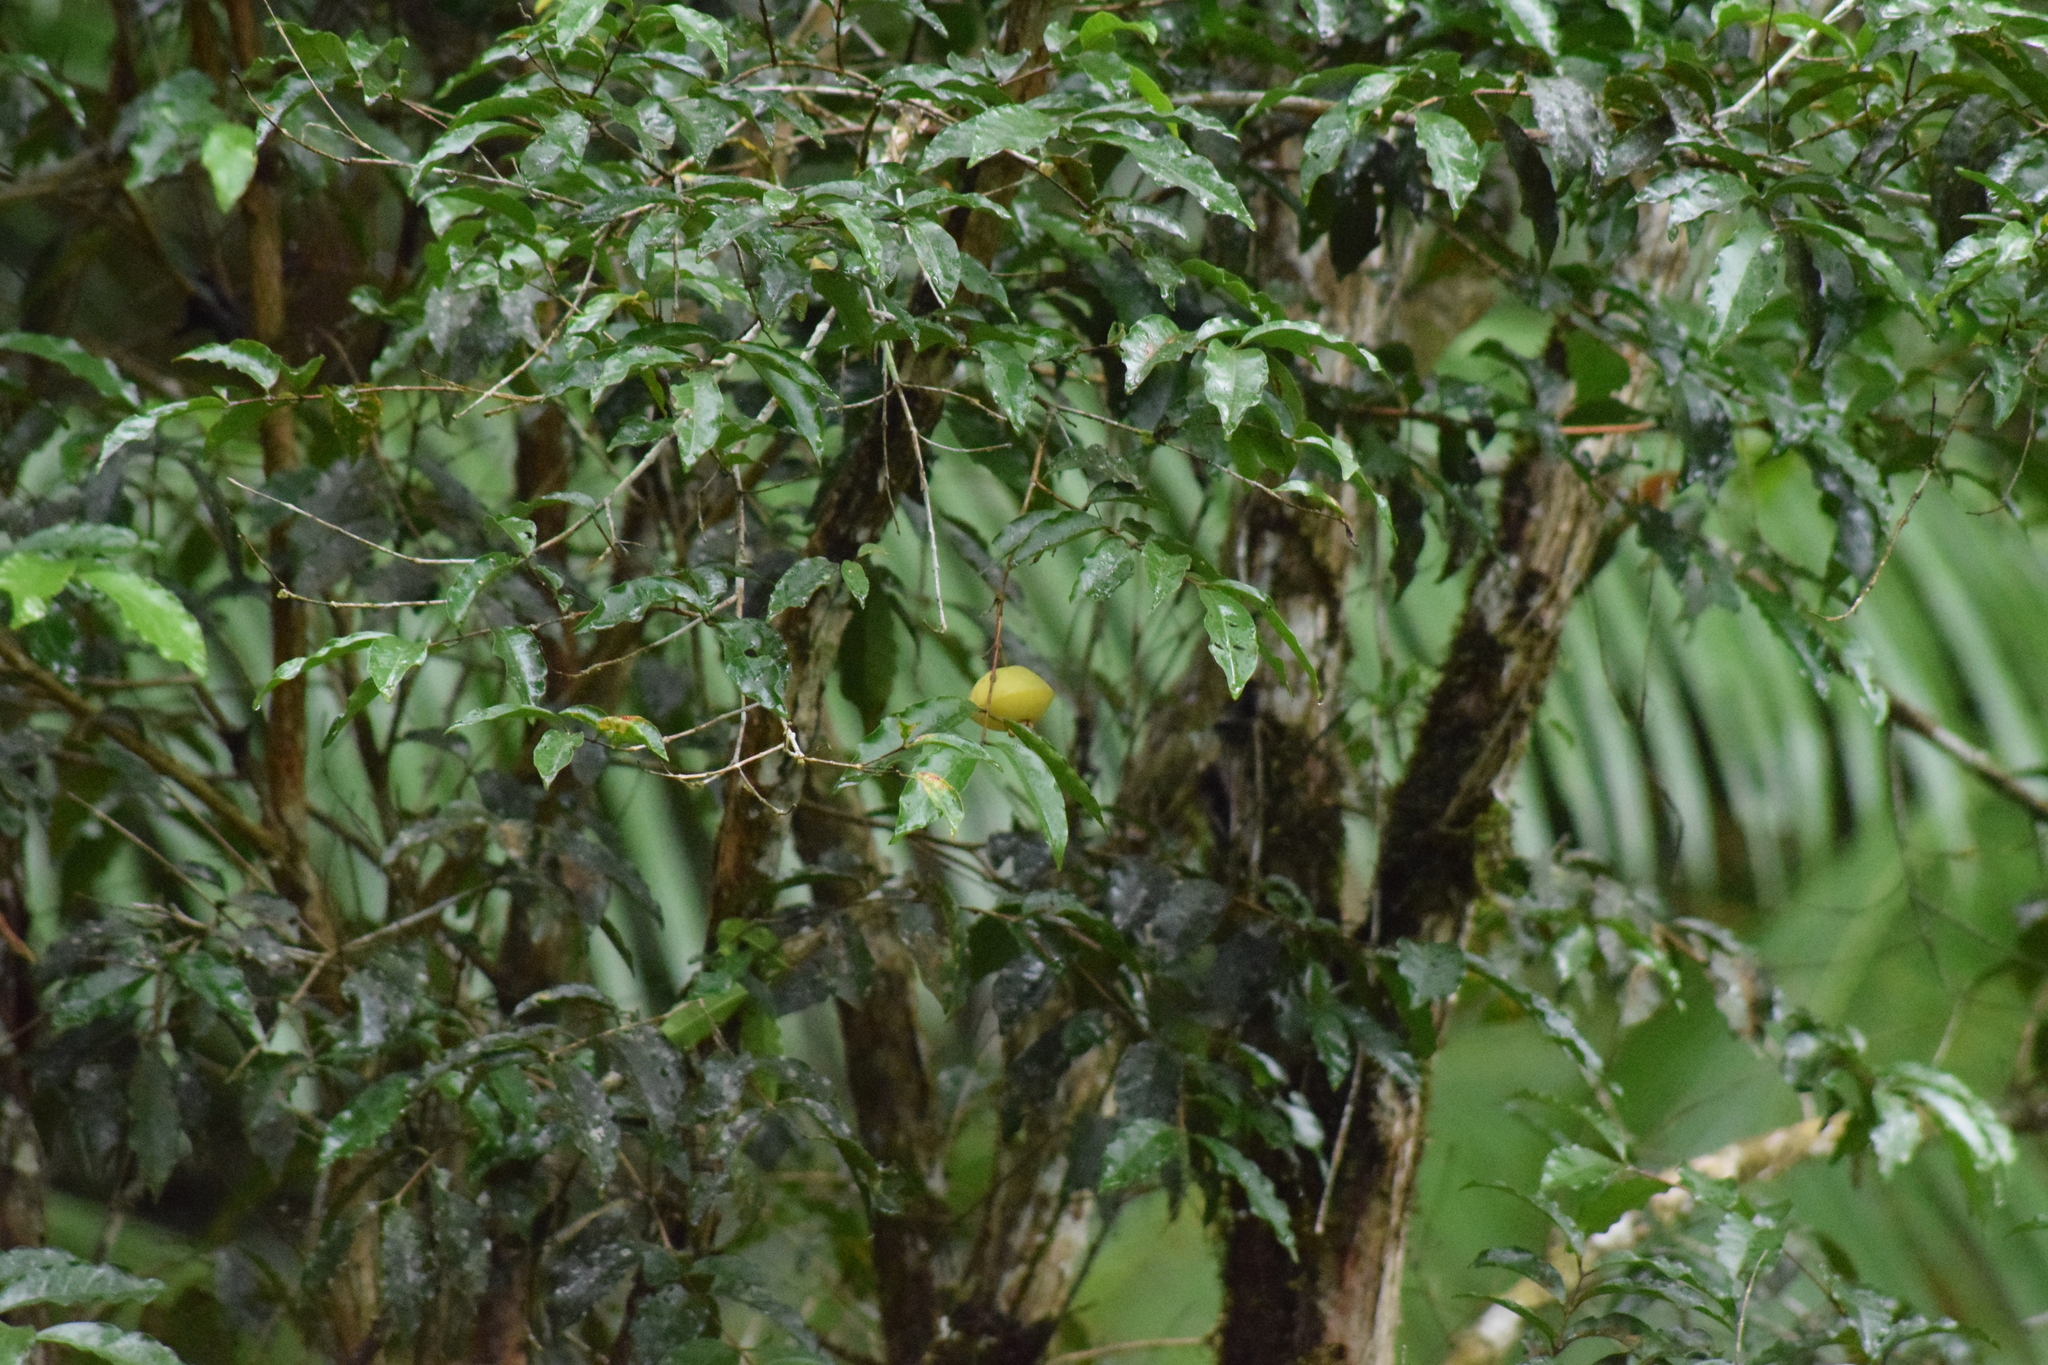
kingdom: Plantae
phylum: Tracheophyta
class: Magnoliopsida
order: Myrtales
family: Myrtaceae
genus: Campomanesia
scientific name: Campomanesia phaea
